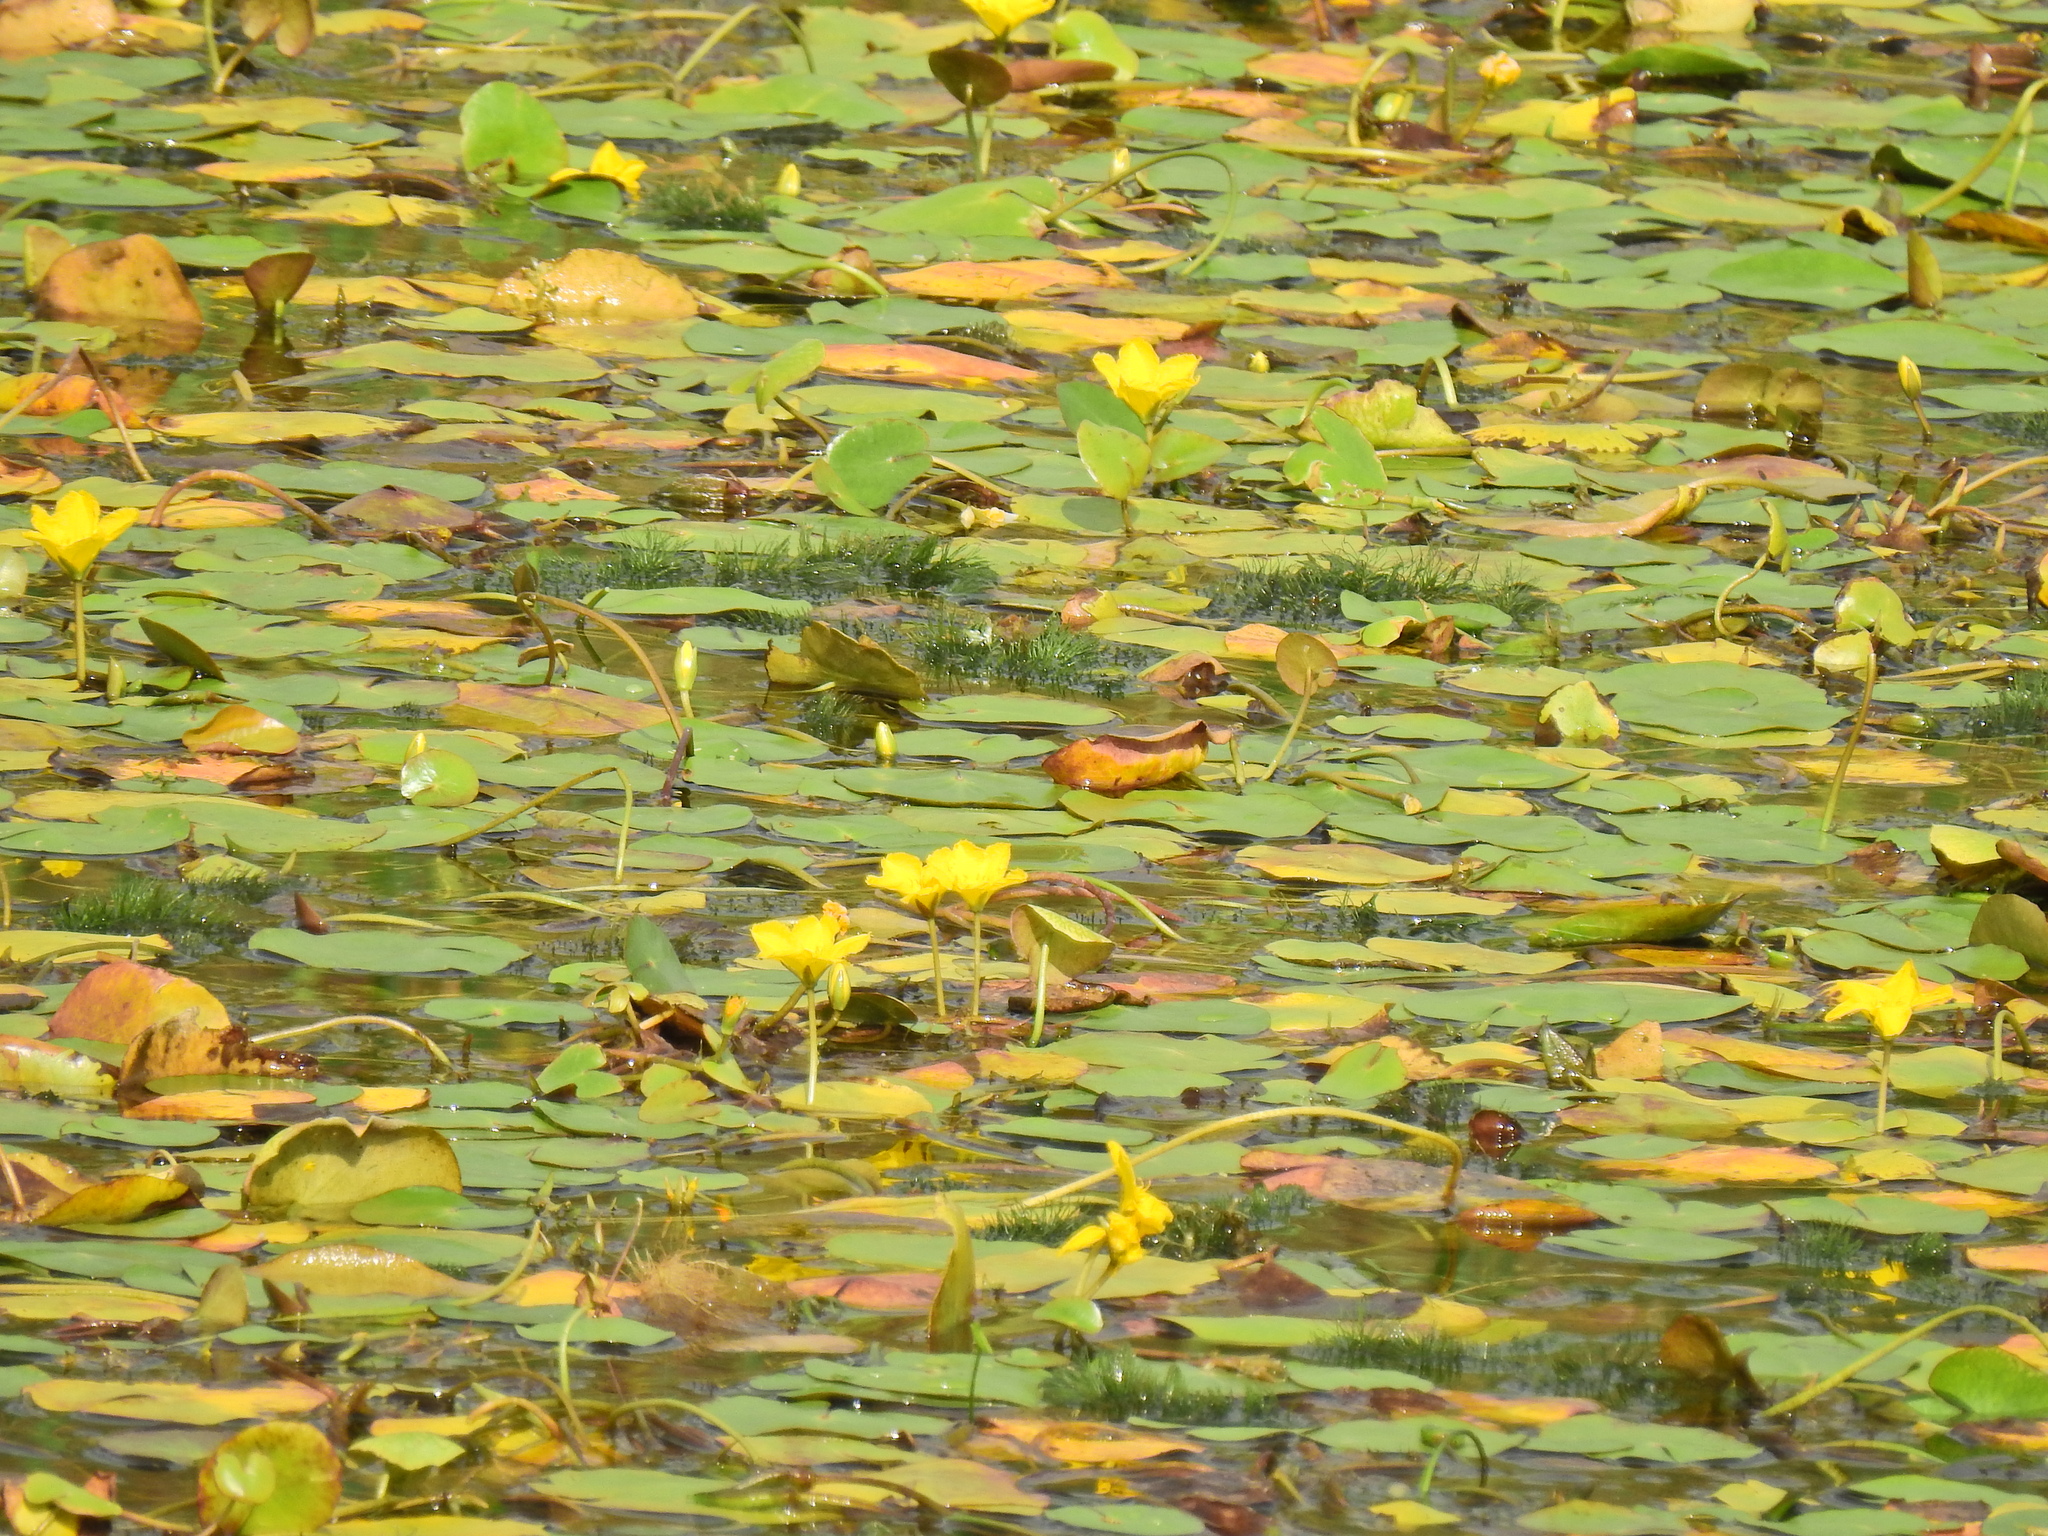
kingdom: Plantae
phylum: Tracheophyta
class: Magnoliopsida
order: Asterales
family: Menyanthaceae
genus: Nymphoides
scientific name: Nymphoides peltata
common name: Fringed water-lily
